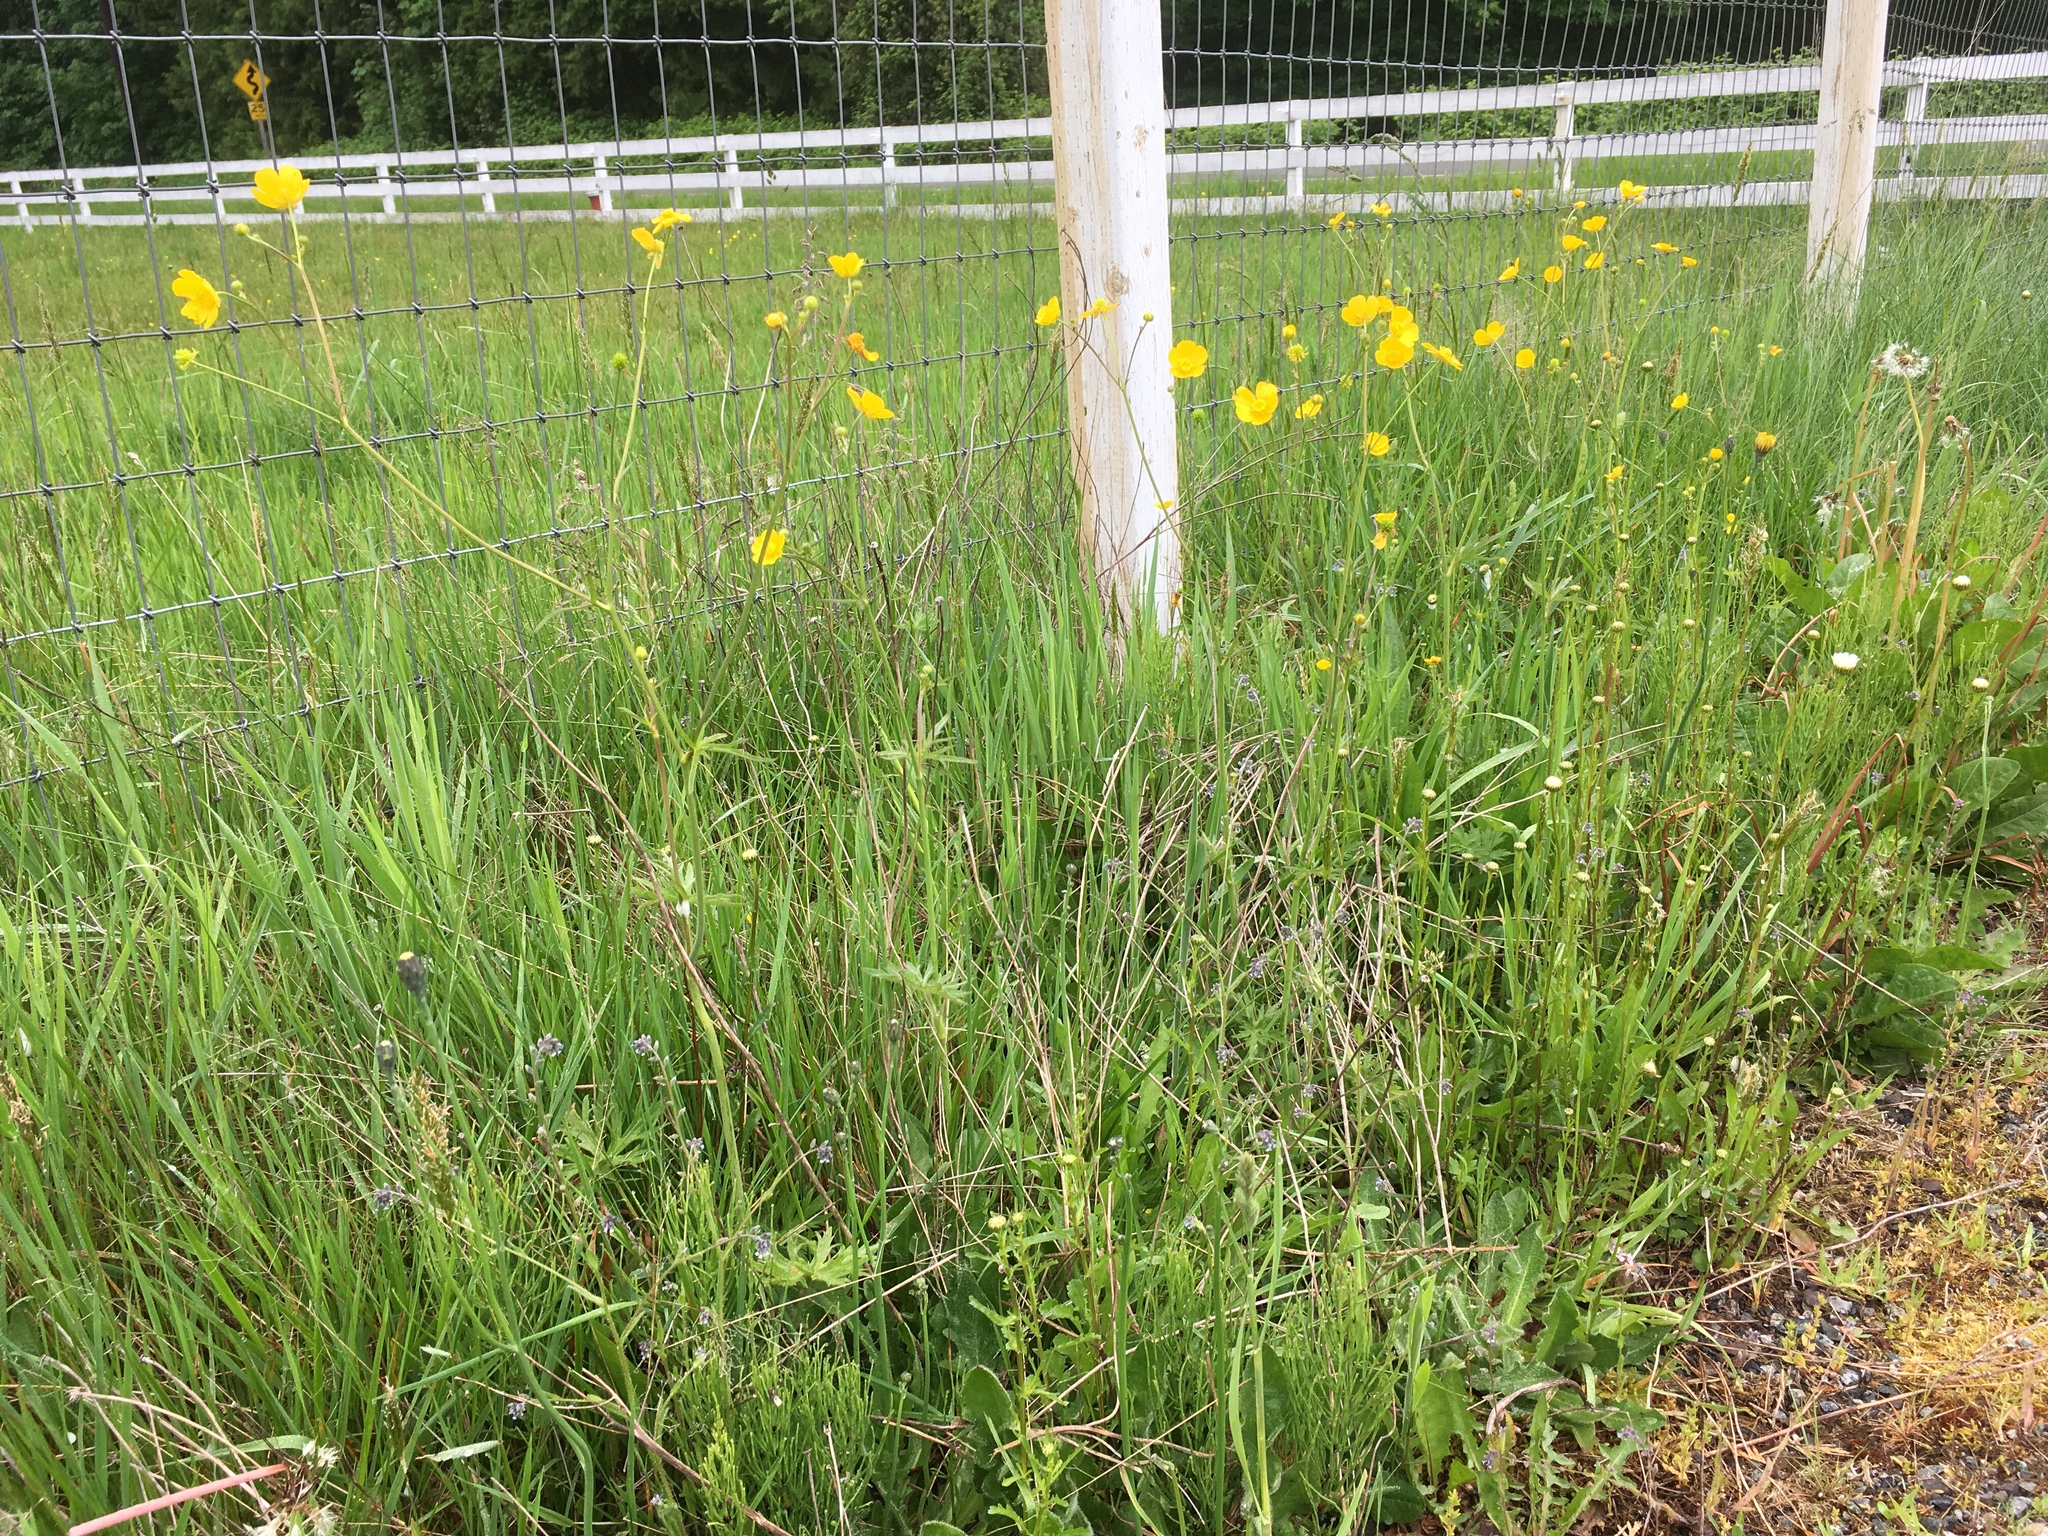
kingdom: Plantae
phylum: Tracheophyta
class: Magnoliopsida
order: Ranunculales
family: Ranunculaceae
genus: Ranunculus
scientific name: Ranunculus acris
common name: Meadow buttercup
